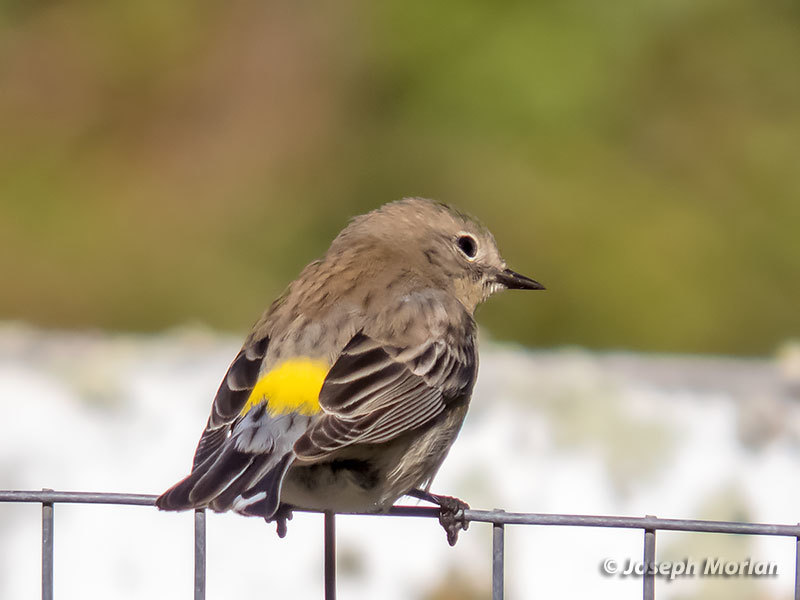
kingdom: Animalia
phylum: Chordata
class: Aves
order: Passeriformes
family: Parulidae
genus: Setophaga
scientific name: Setophaga coronata
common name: Myrtle warbler
